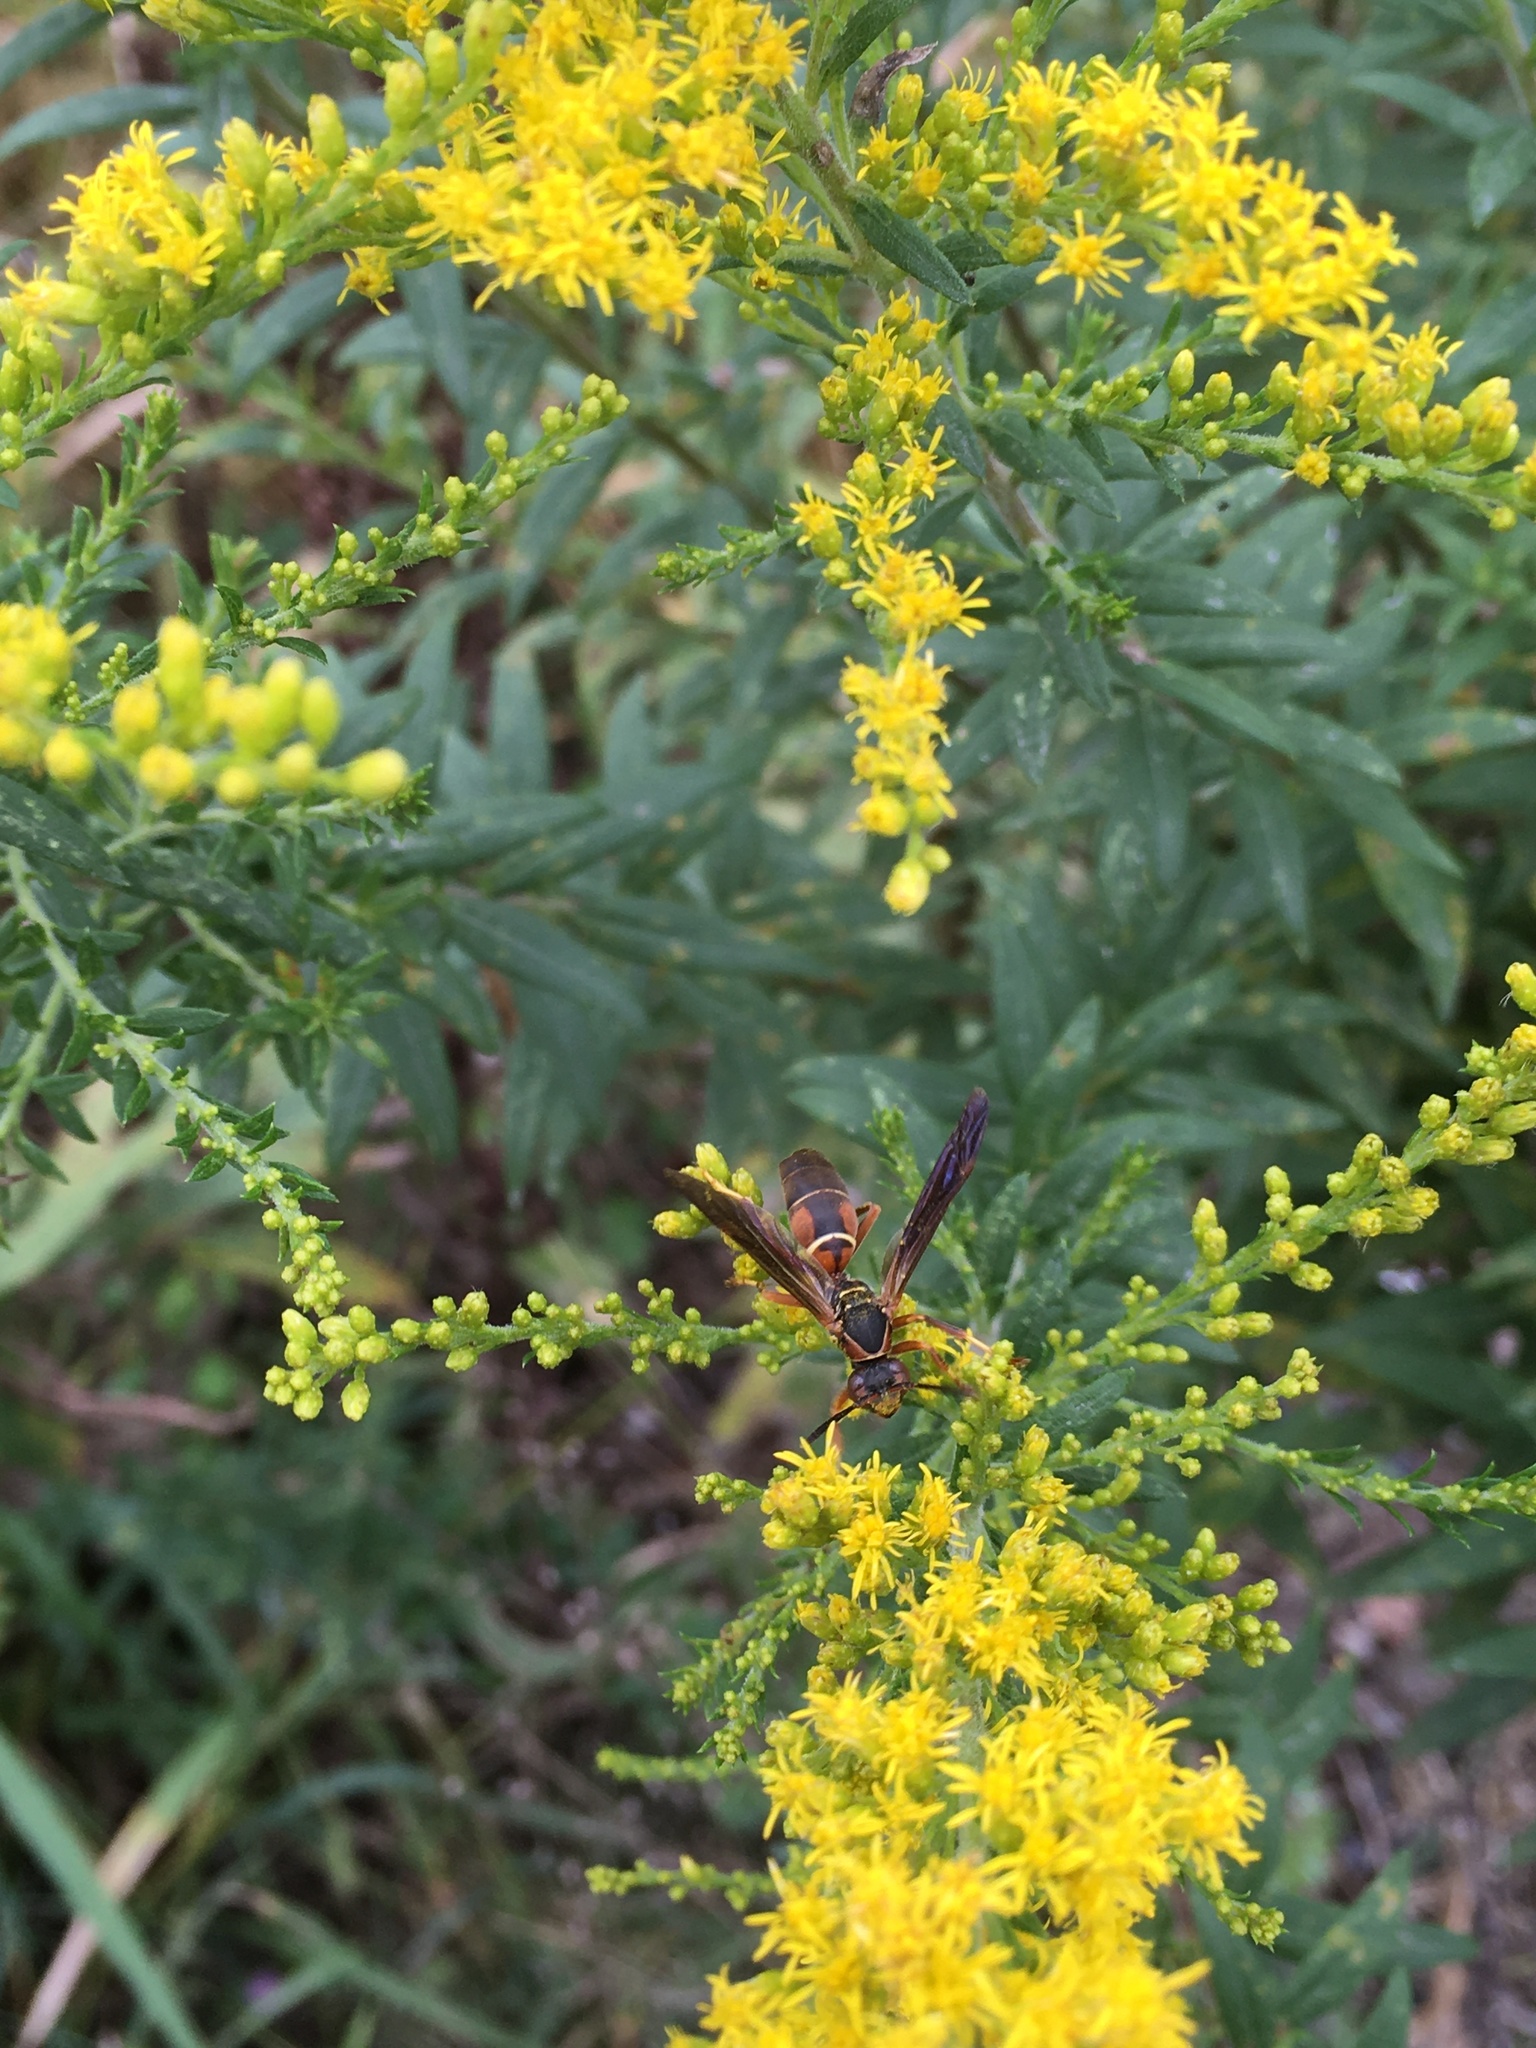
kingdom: Animalia
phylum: Arthropoda
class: Insecta
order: Hymenoptera
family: Eumenidae
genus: Polistes
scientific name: Polistes fuscatus
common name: Dark paper wasp
